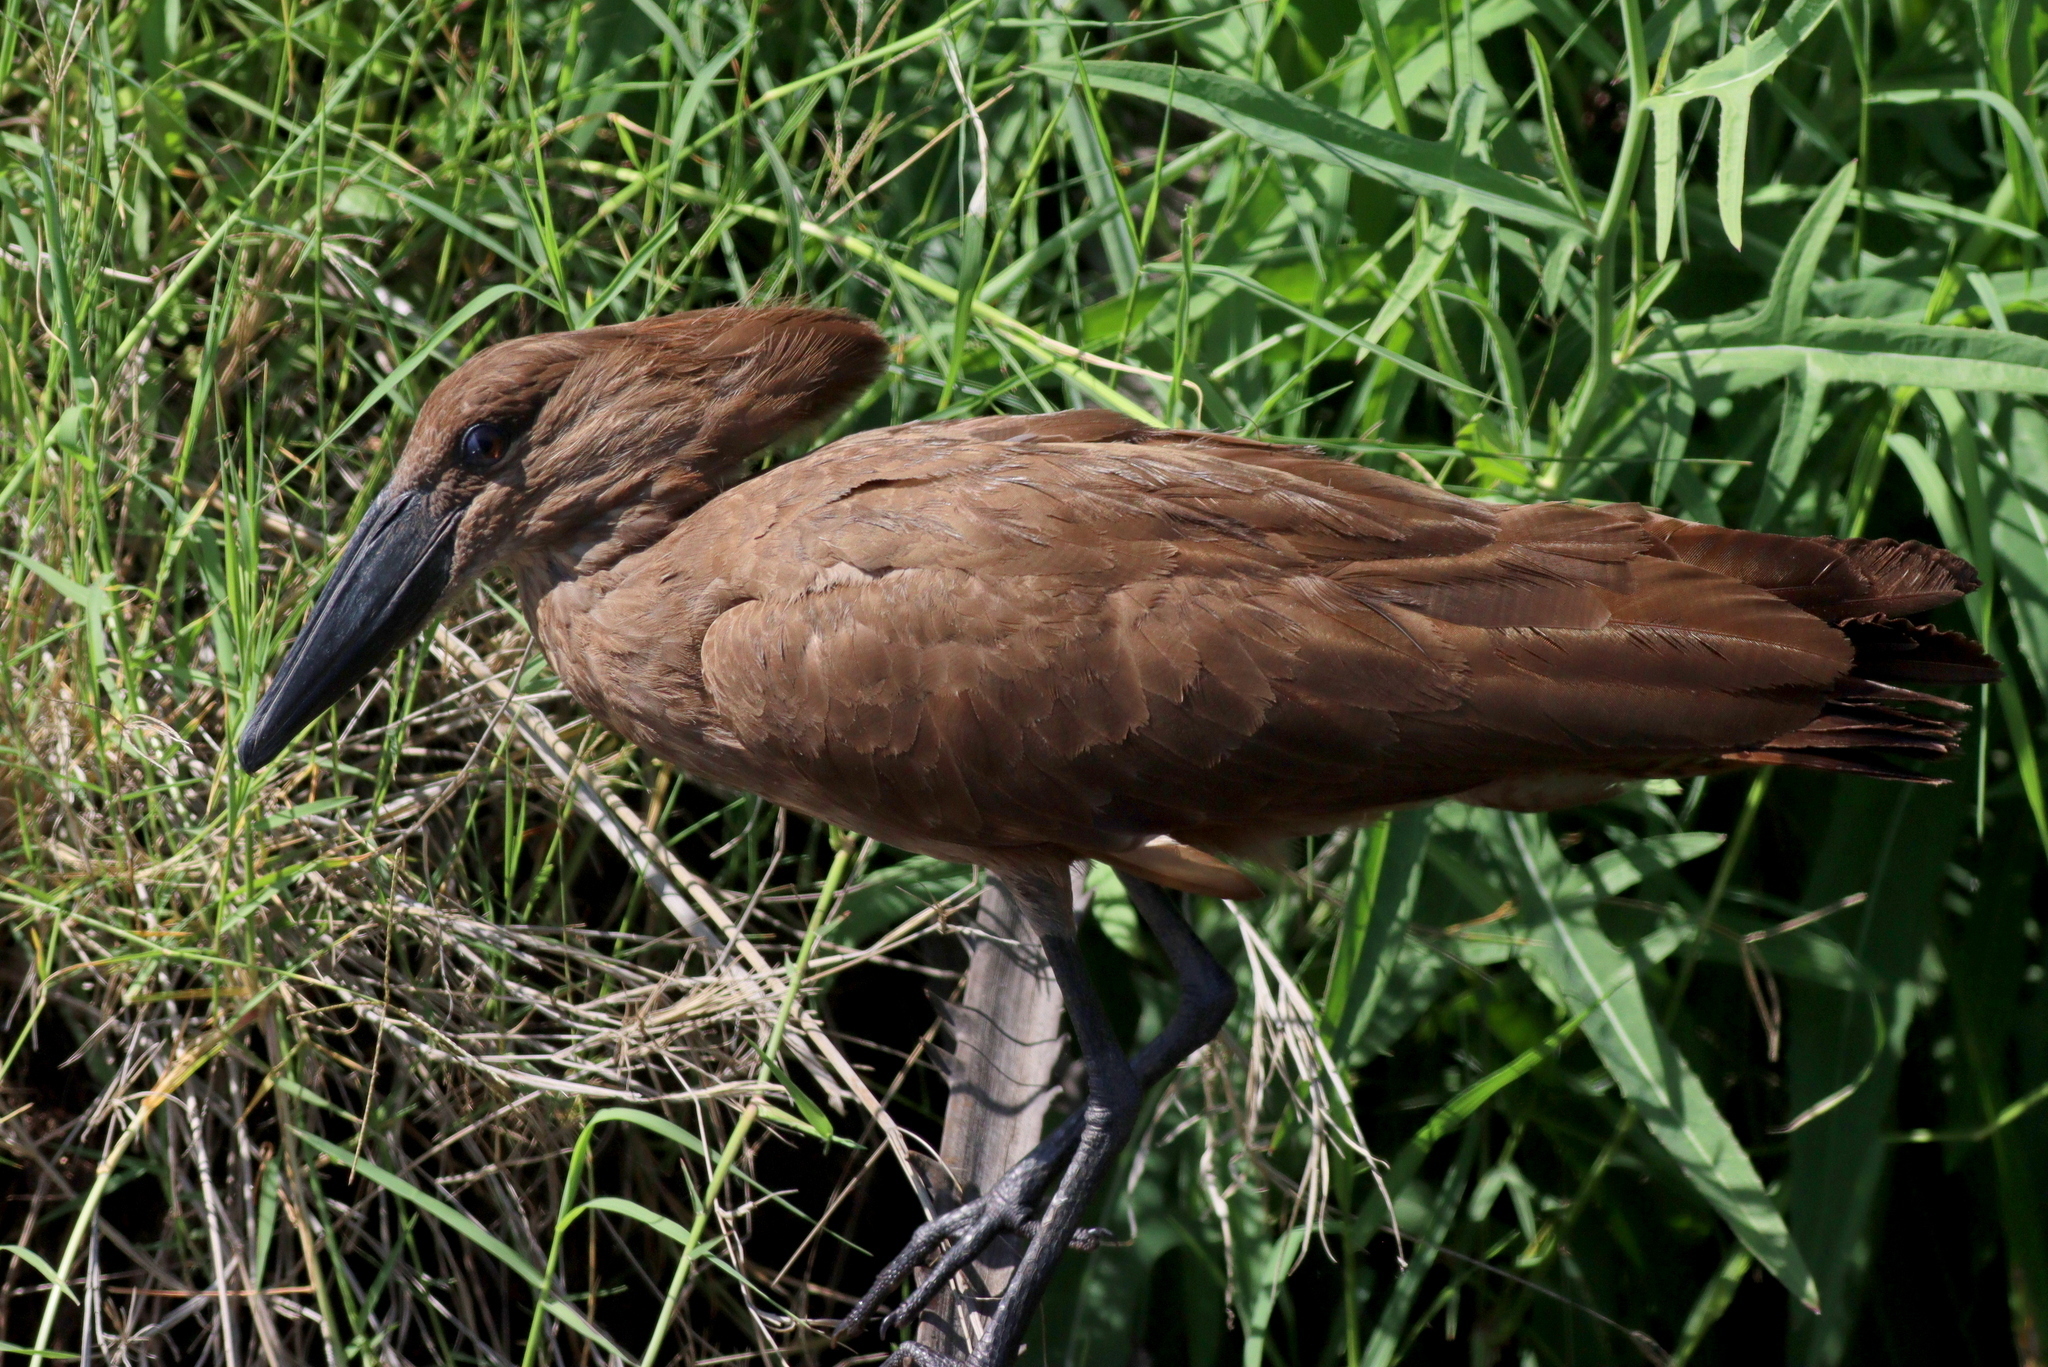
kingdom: Animalia
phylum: Chordata
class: Aves
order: Pelecaniformes
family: Scopidae
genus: Scopus
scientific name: Scopus umbretta
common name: Hamerkop
